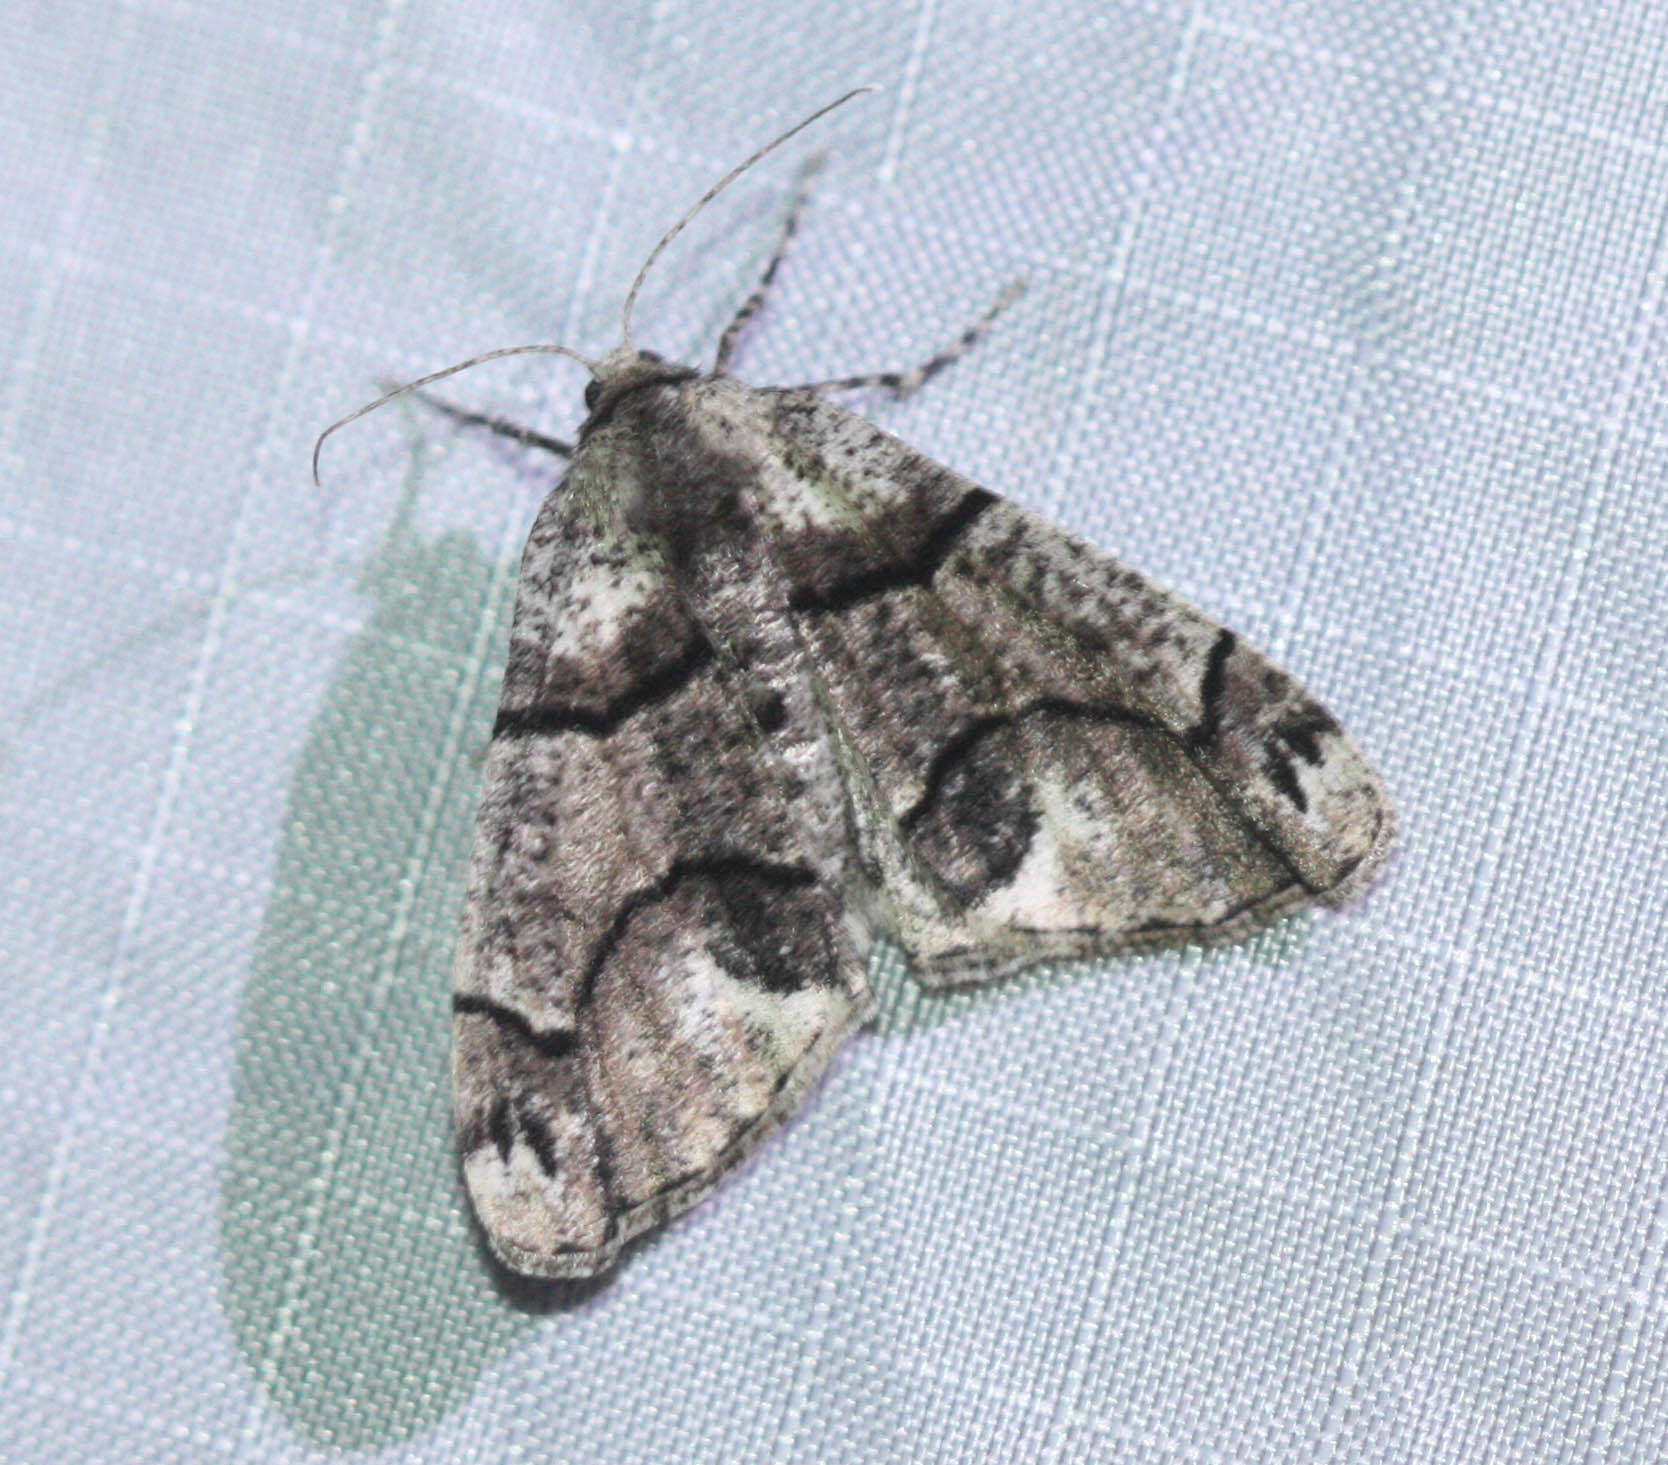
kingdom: Animalia
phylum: Arthropoda
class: Insecta
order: Lepidoptera
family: Geometridae
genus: Gabriola
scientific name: Gabriola dyari
